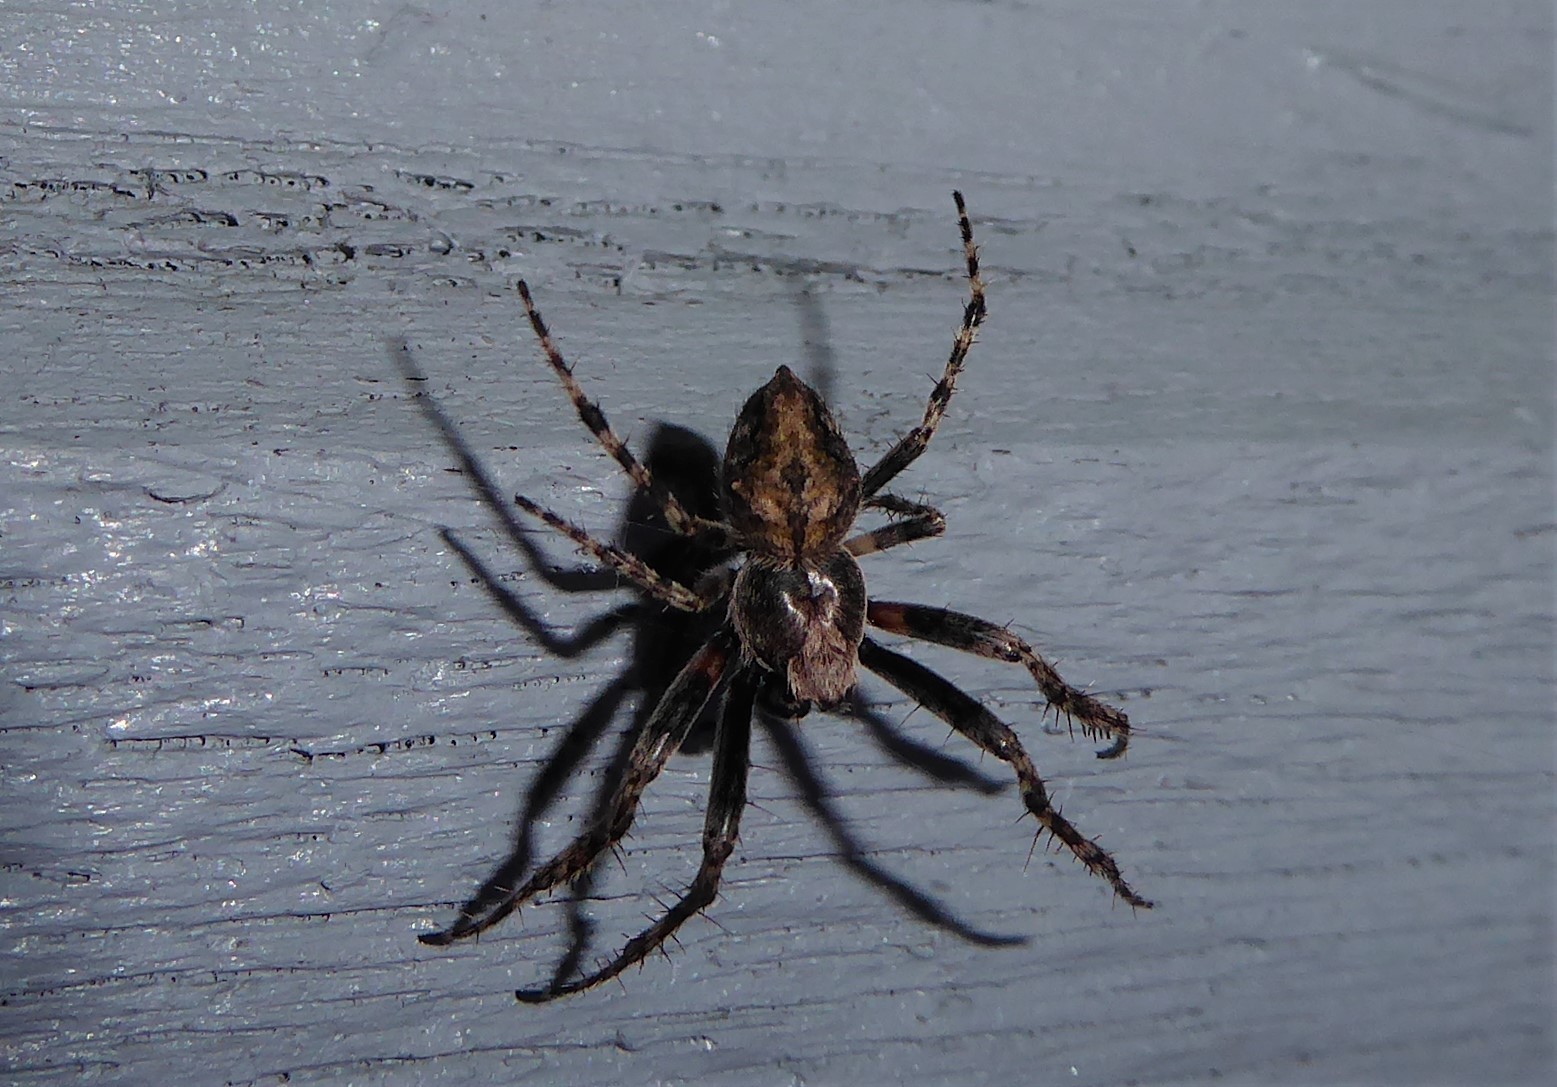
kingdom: Animalia
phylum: Arthropoda
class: Arachnida
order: Araneae
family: Araneidae
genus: Eriophora
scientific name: Eriophora pustulosa
